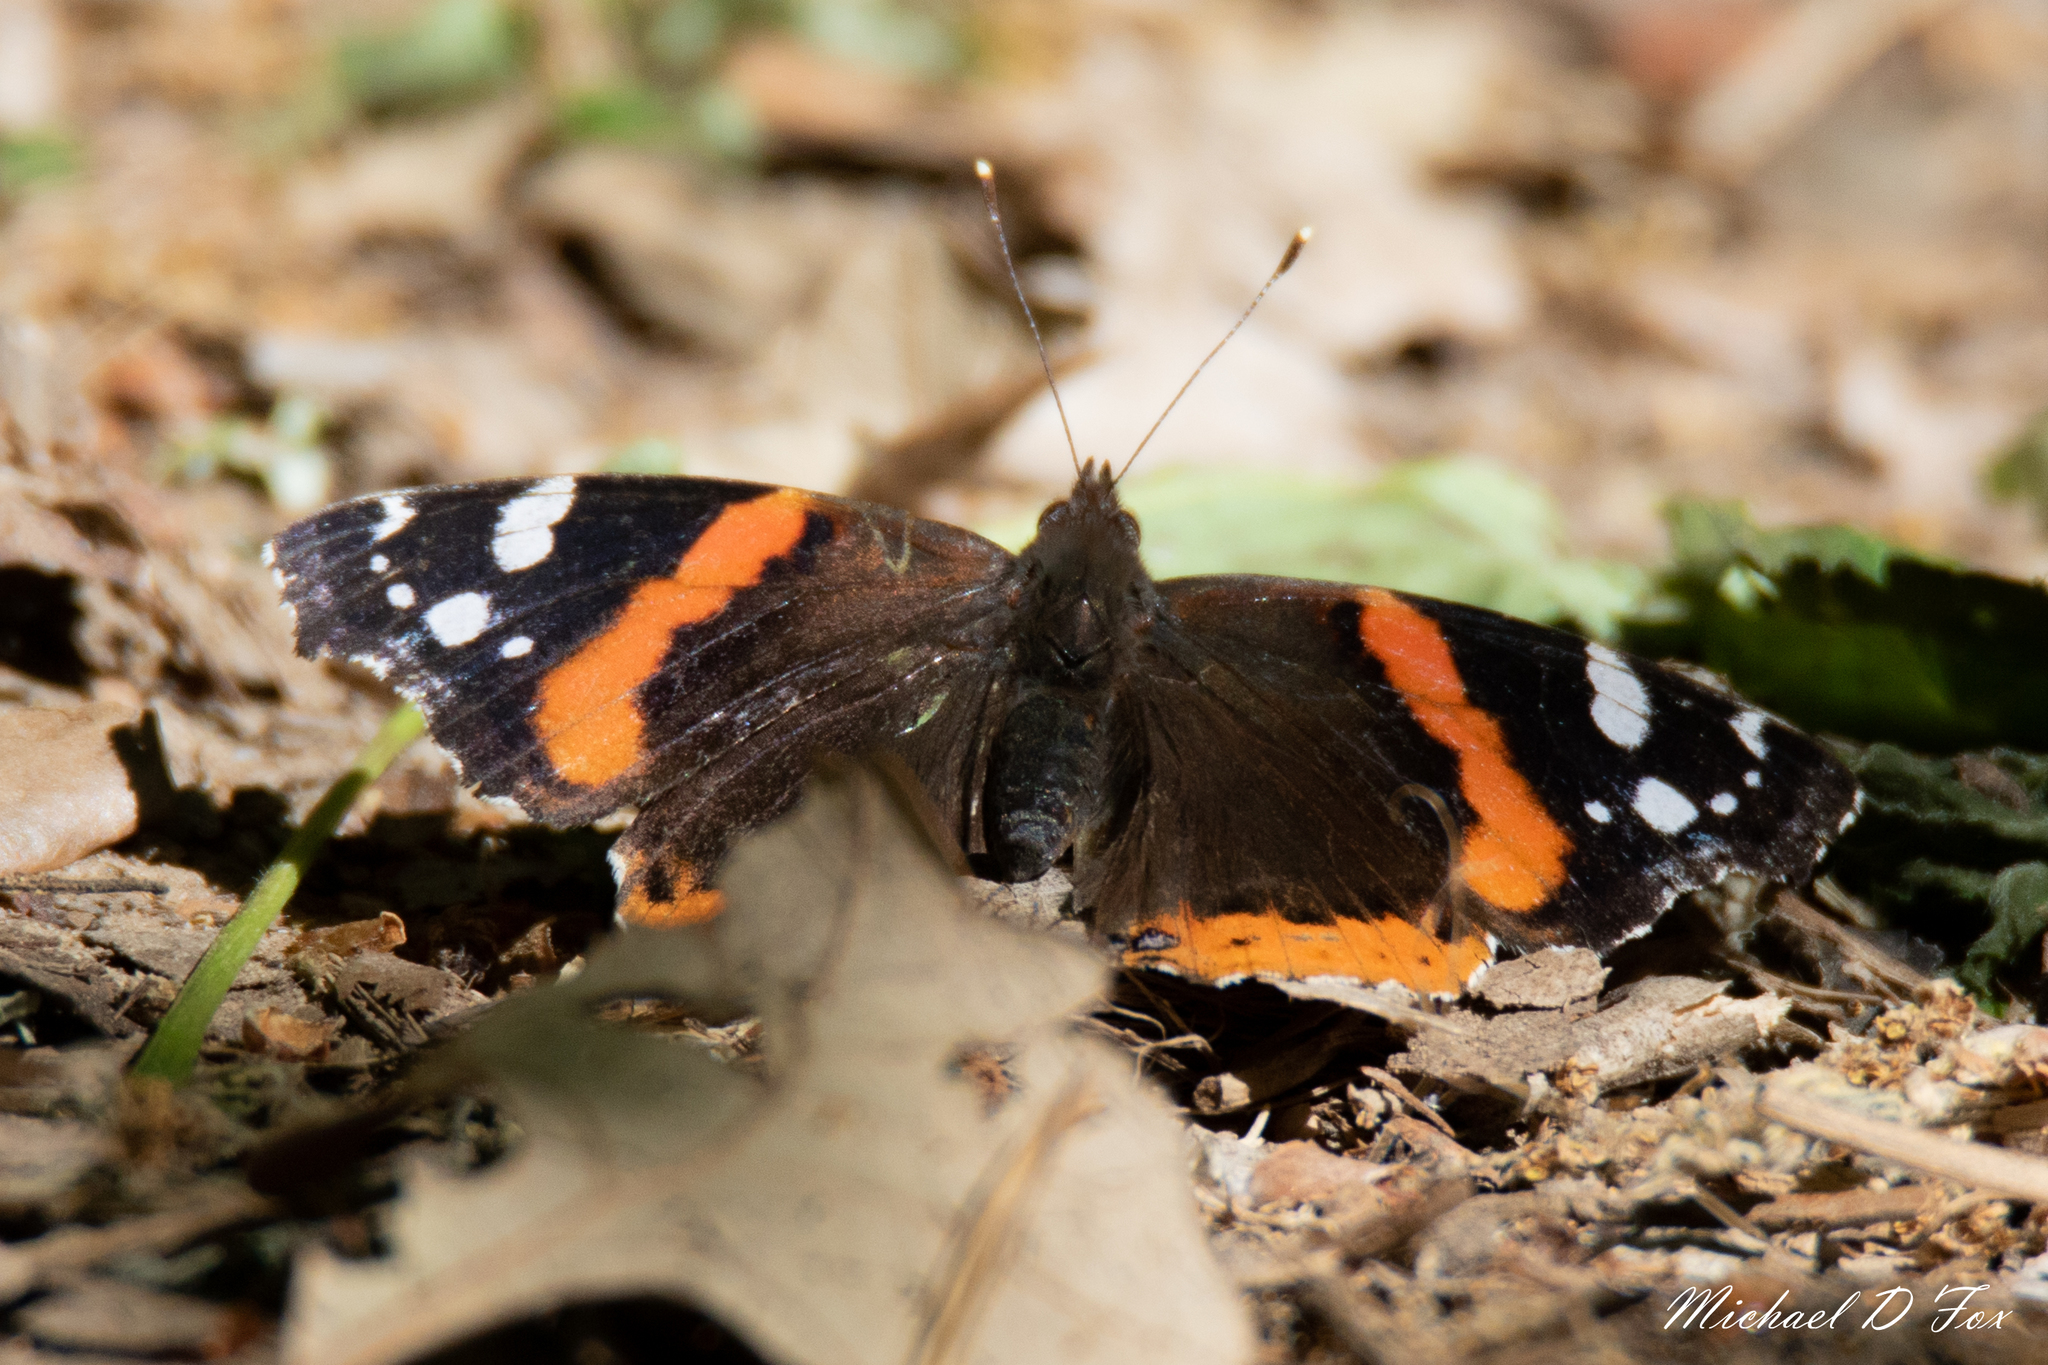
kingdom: Animalia
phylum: Arthropoda
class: Insecta
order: Lepidoptera
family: Nymphalidae
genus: Vanessa
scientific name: Vanessa atalanta
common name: Red admiral
